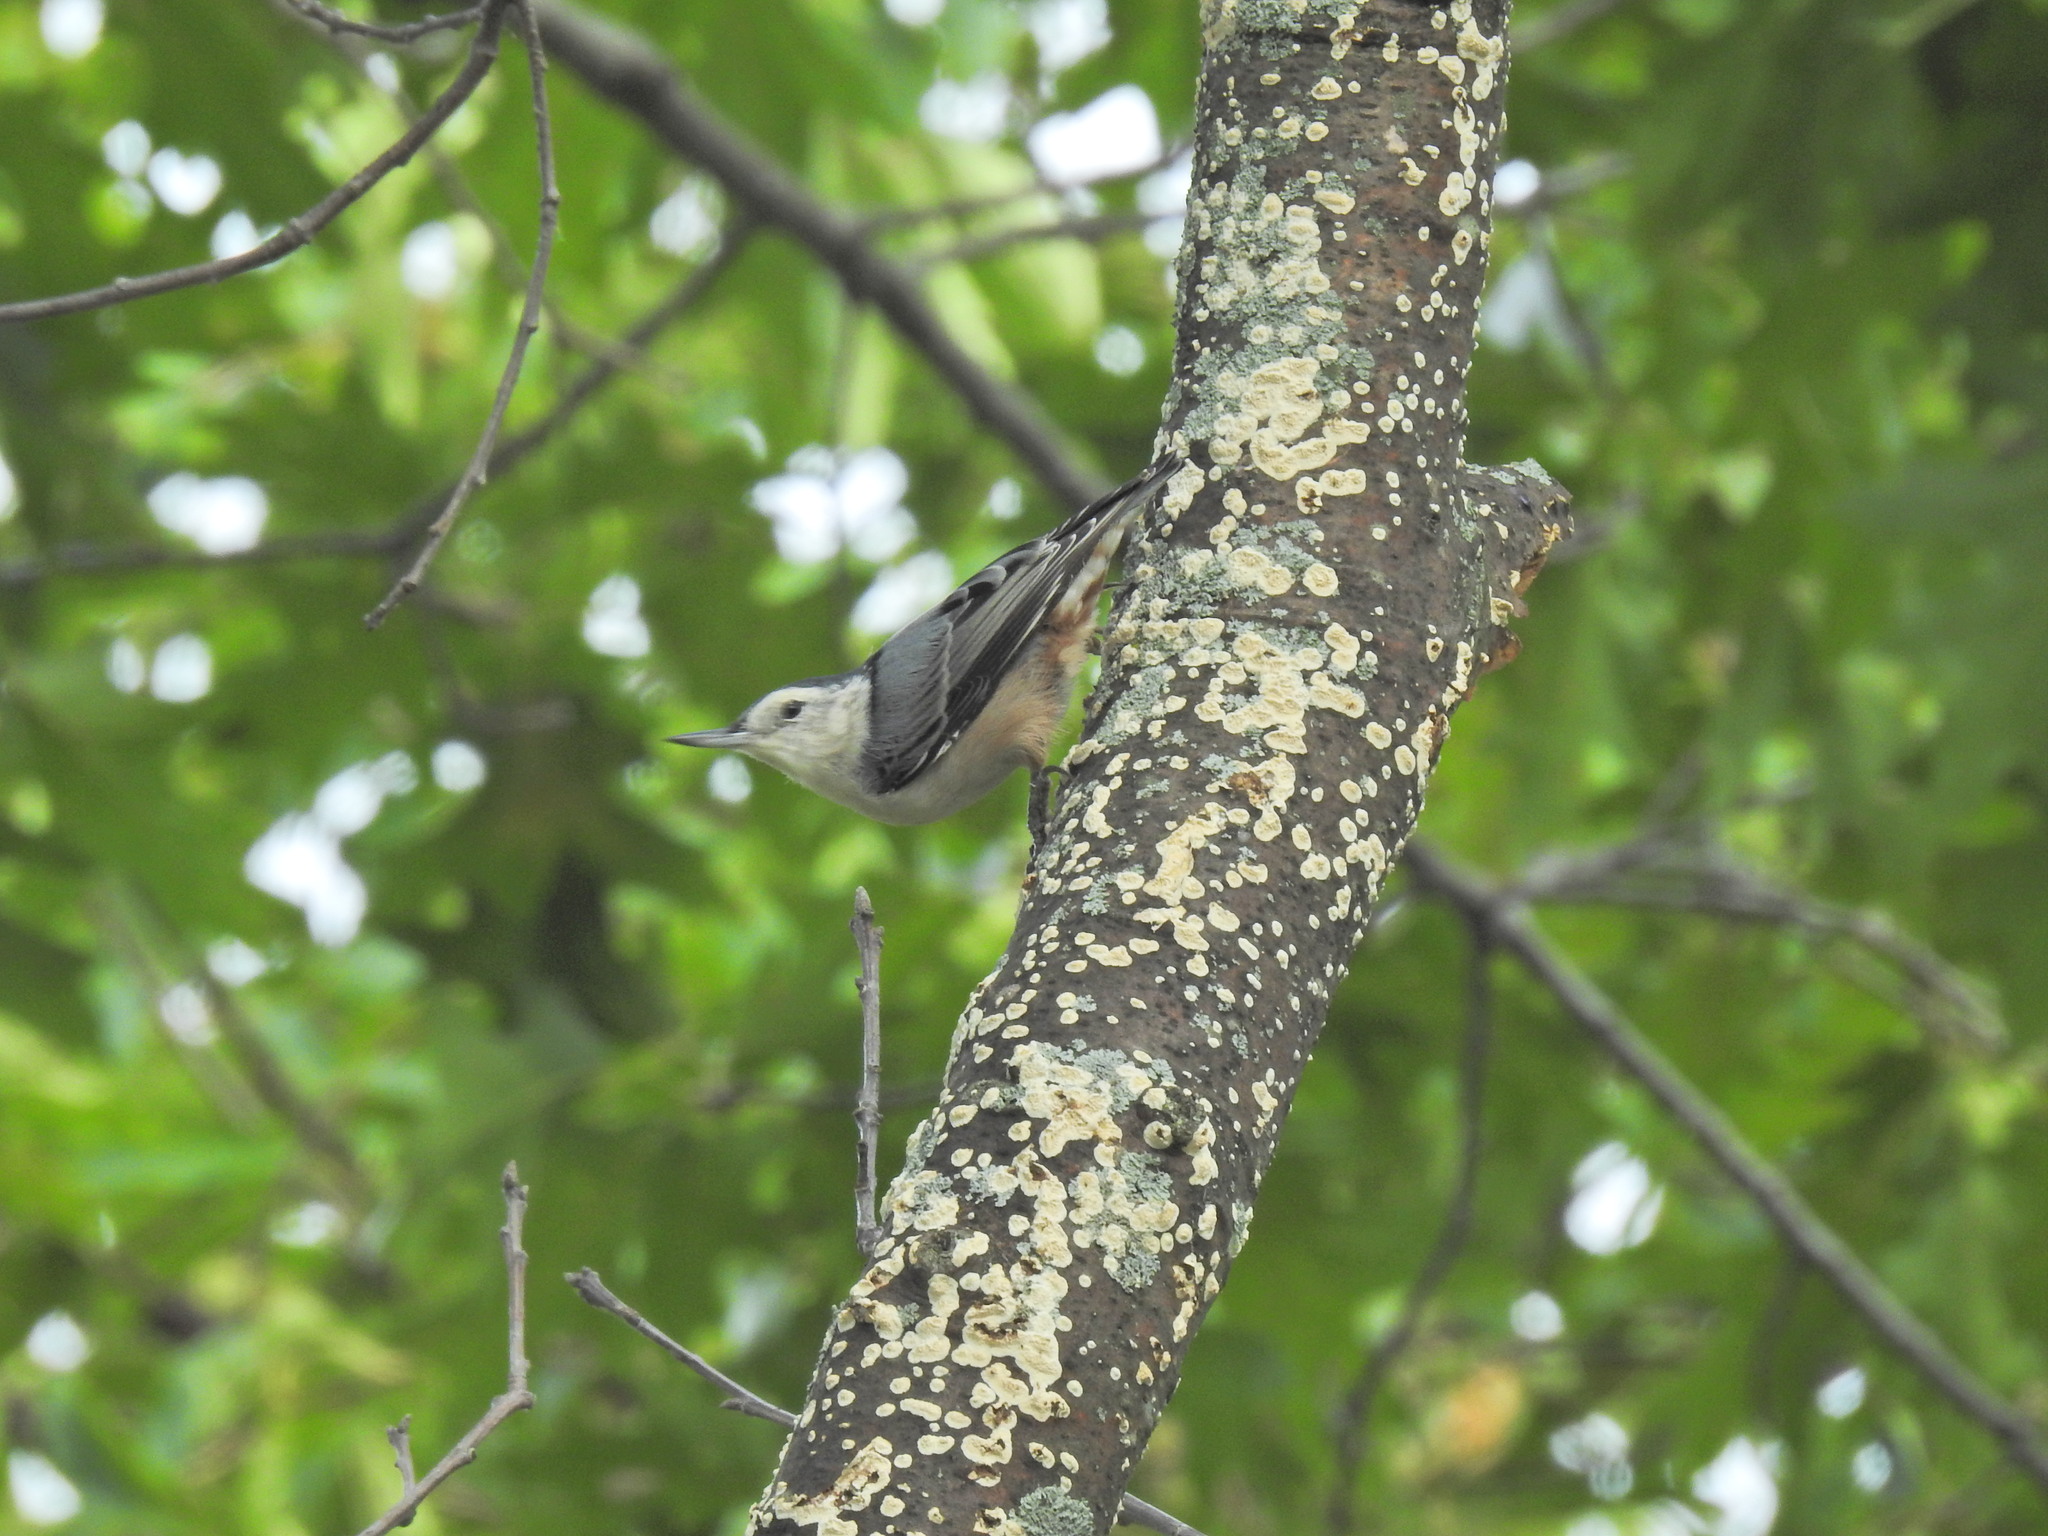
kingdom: Animalia
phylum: Chordata
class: Aves
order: Passeriformes
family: Sittidae
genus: Sitta
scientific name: Sitta carolinensis
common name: White-breasted nuthatch
